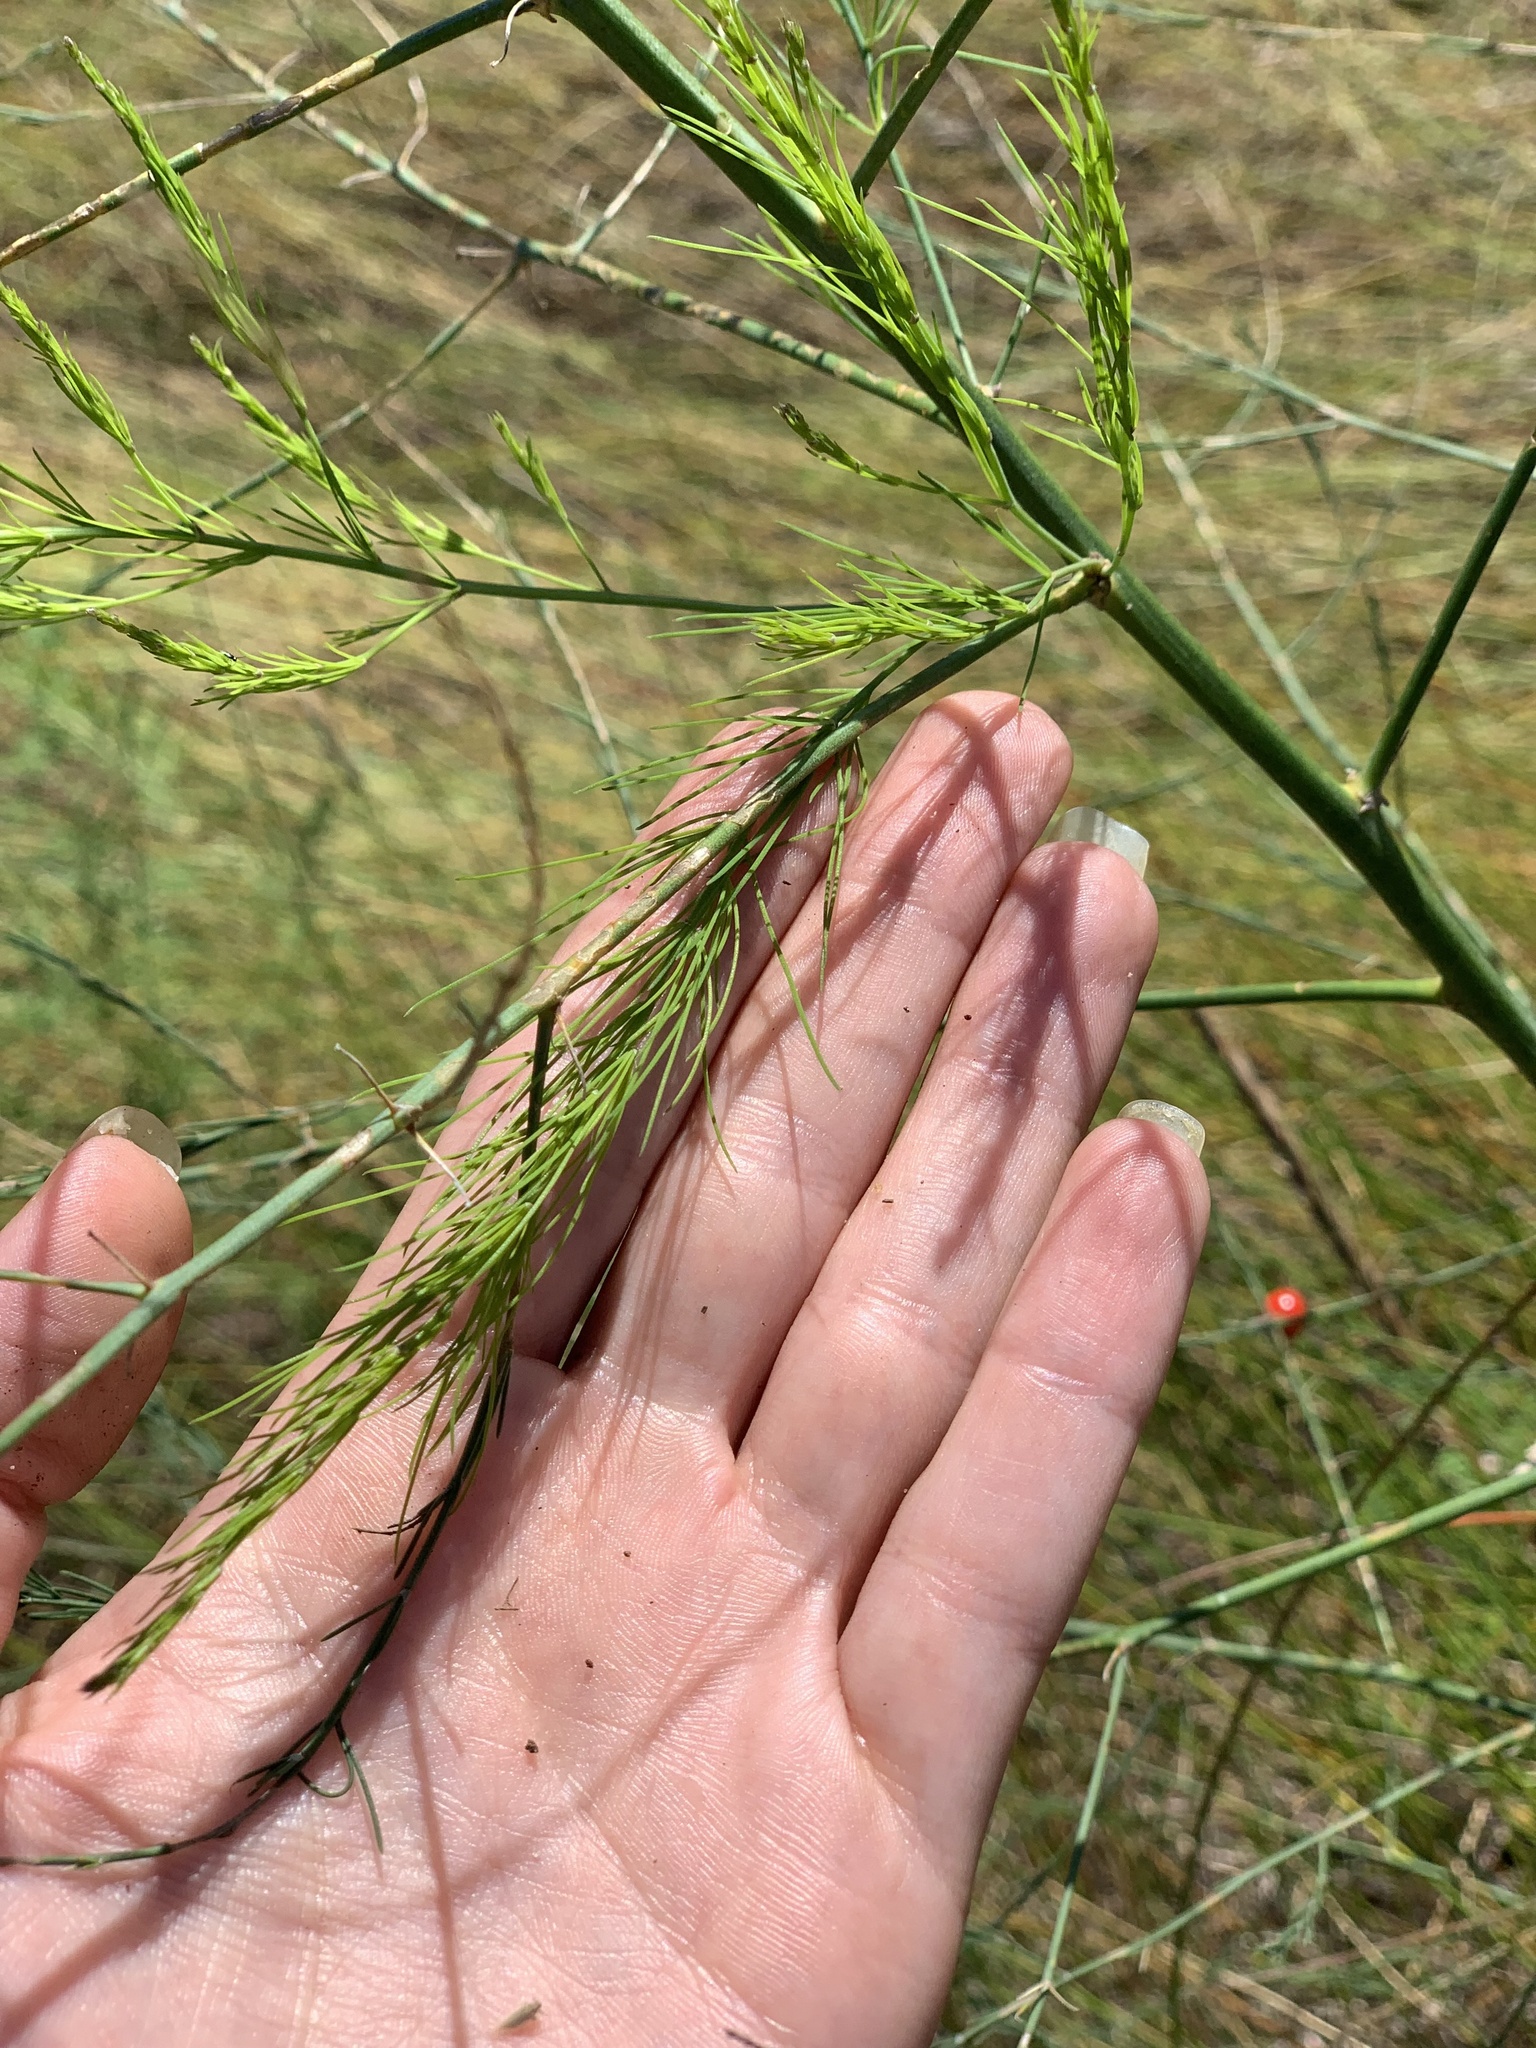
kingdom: Plantae
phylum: Tracheophyta
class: Liliopsida
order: Asparagales
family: Asparagaceae
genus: Asparagus
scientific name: Asparagus officinalis
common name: Garden asparagus
